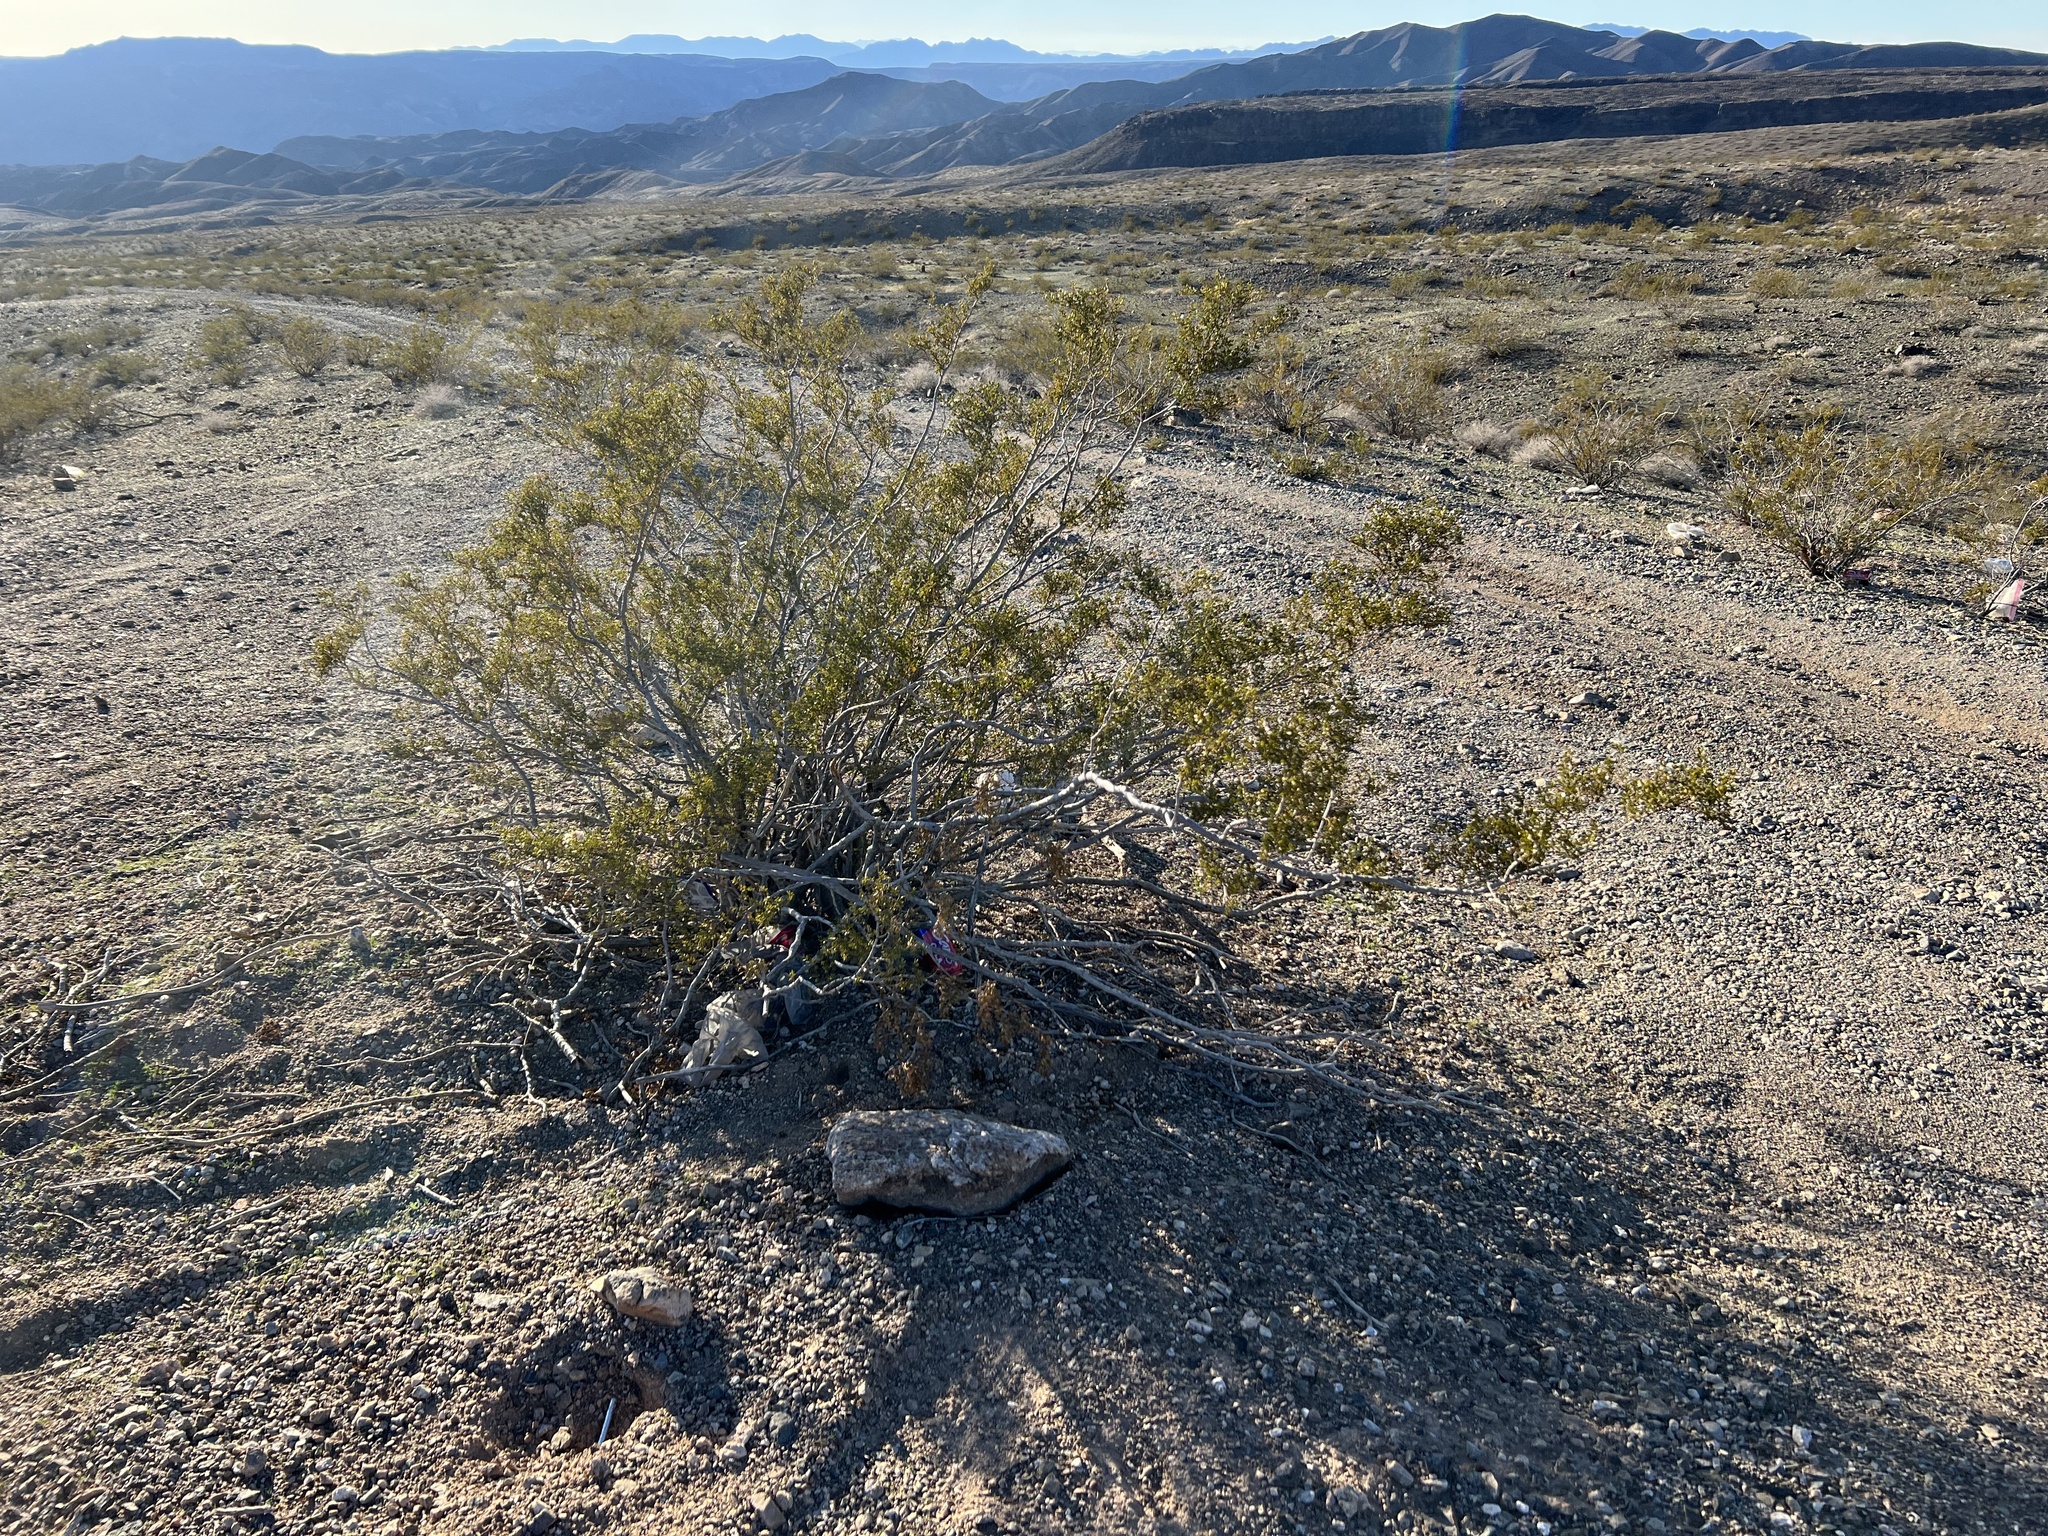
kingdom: Plantae
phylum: Tracheophyta
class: Magnoliopsida
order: Zygophyllales
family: Zygophyllaceae
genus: Larrea
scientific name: Larrea tridentata
